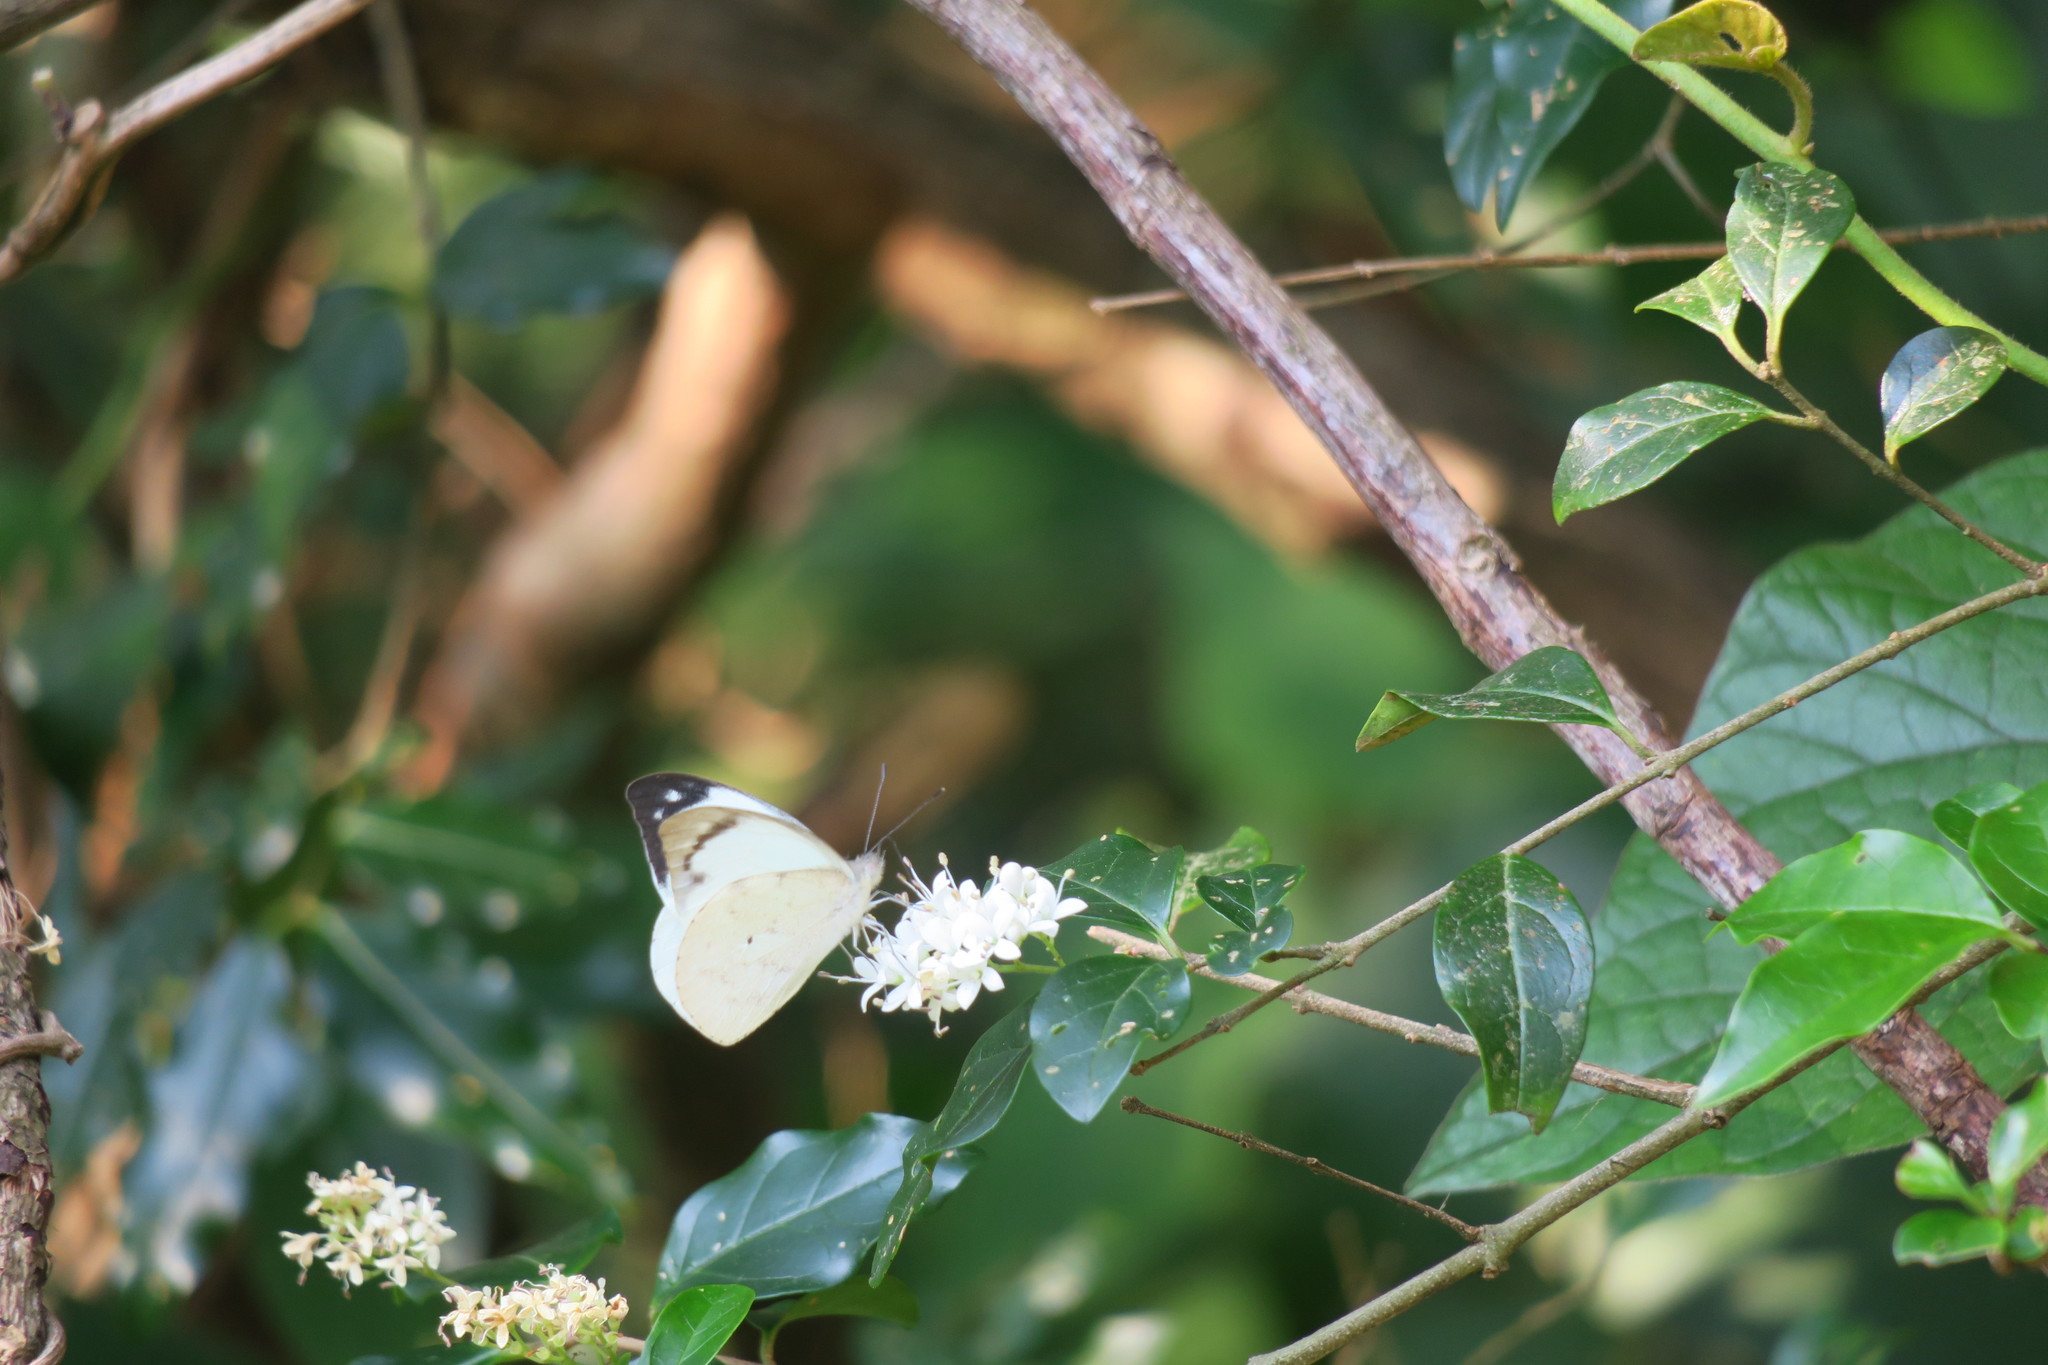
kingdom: Animalia
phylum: Arthropoda
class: Insecta
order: Lepidoptera
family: Pieridae
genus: Appias
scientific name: Appias indra
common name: Plain puffin
